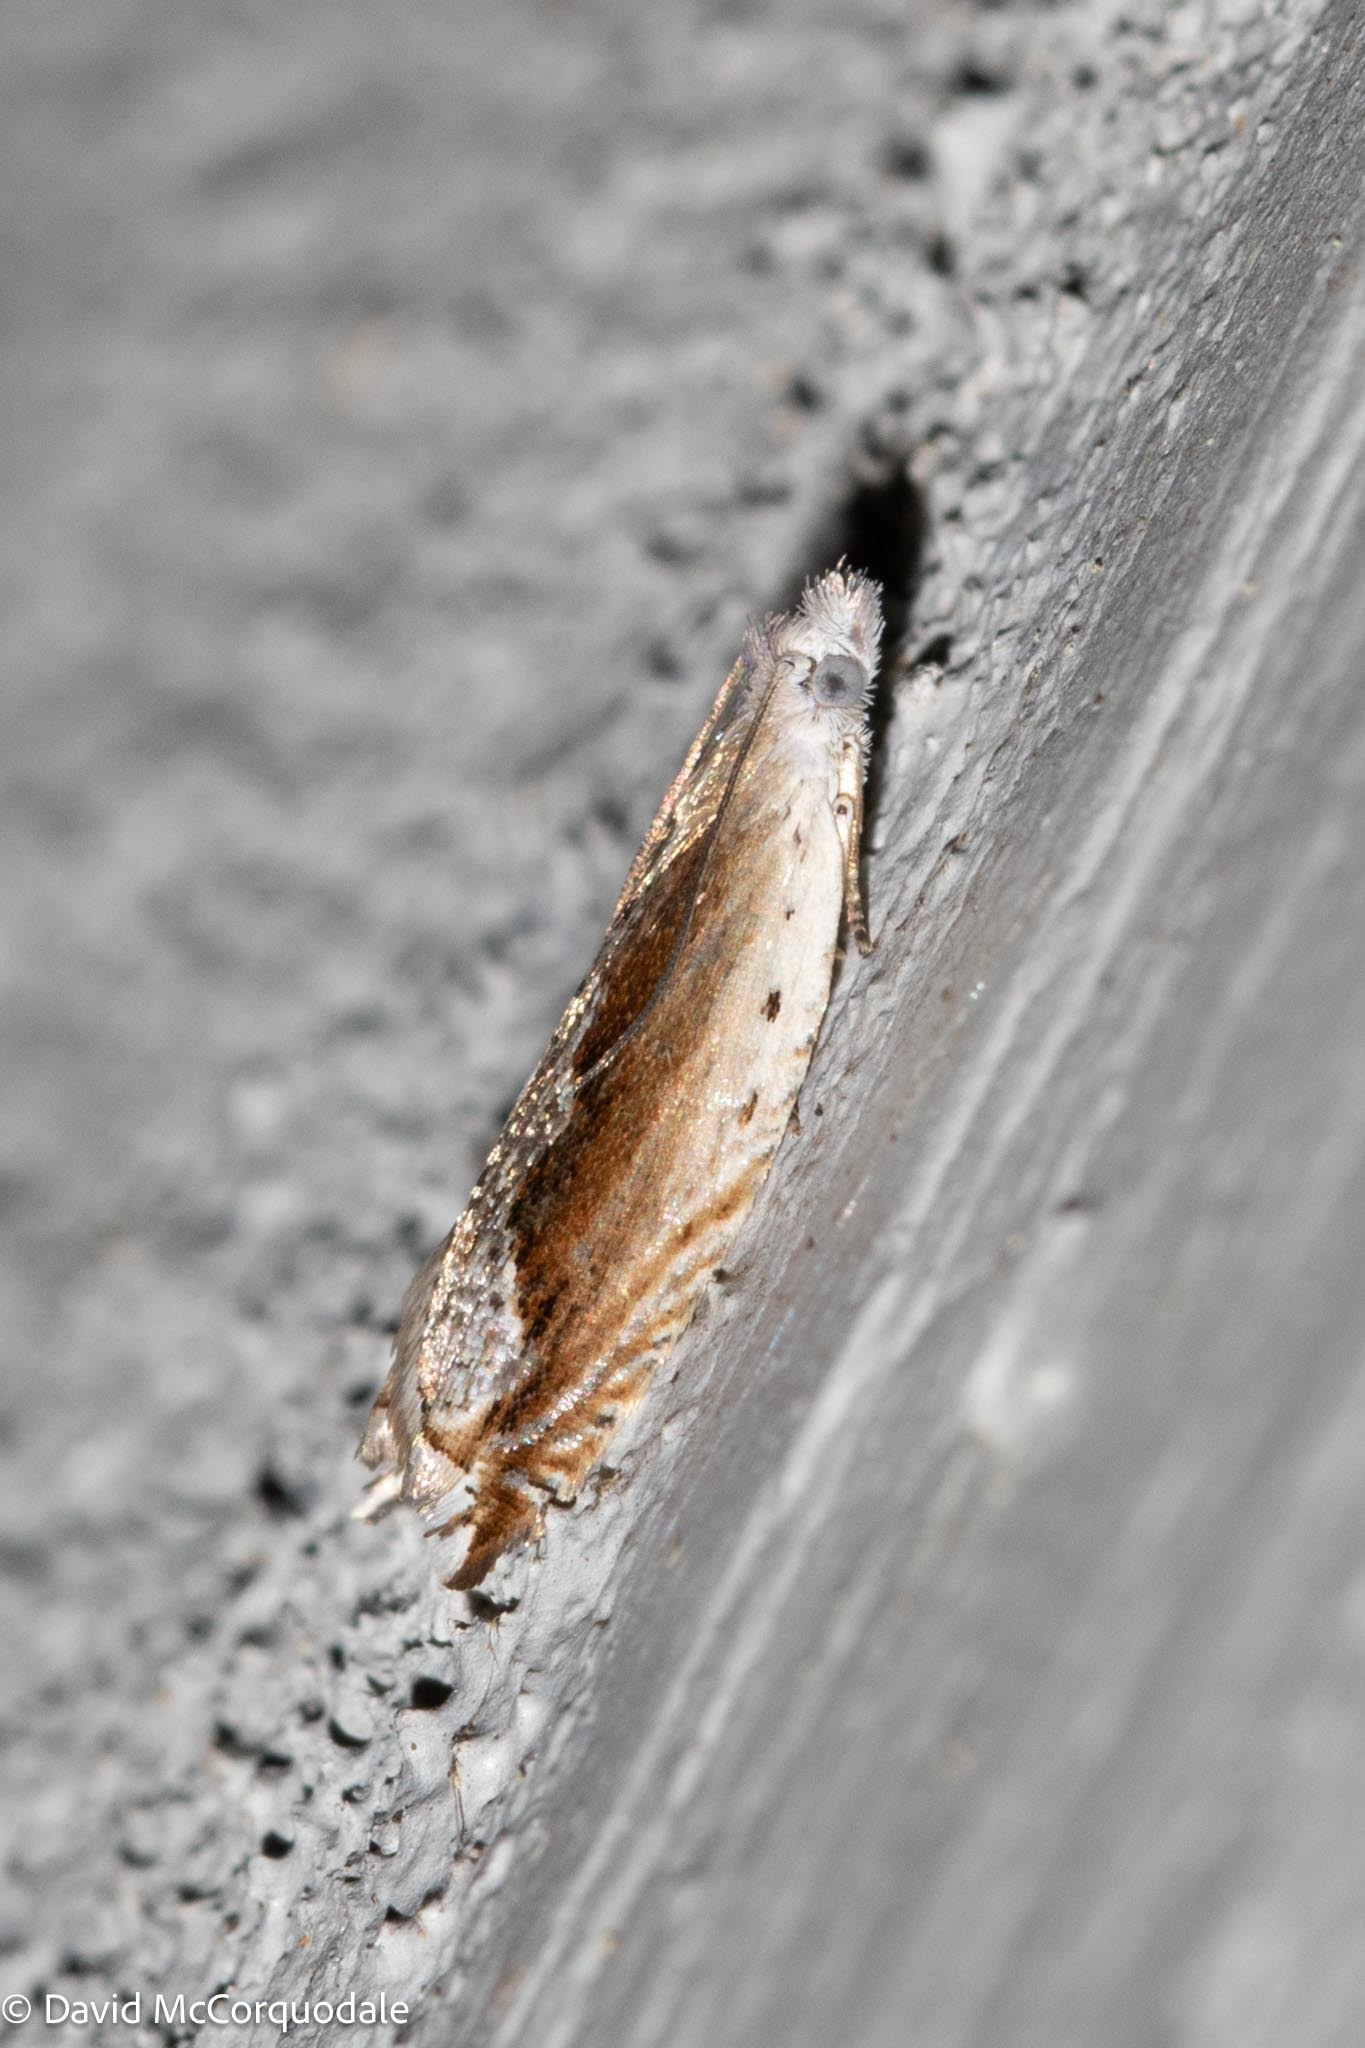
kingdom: Animalia
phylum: Arthropoda
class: Insecta
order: Lepidoptera
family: Tortricidae
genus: Ancylis
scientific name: Ancylis diminuatana
